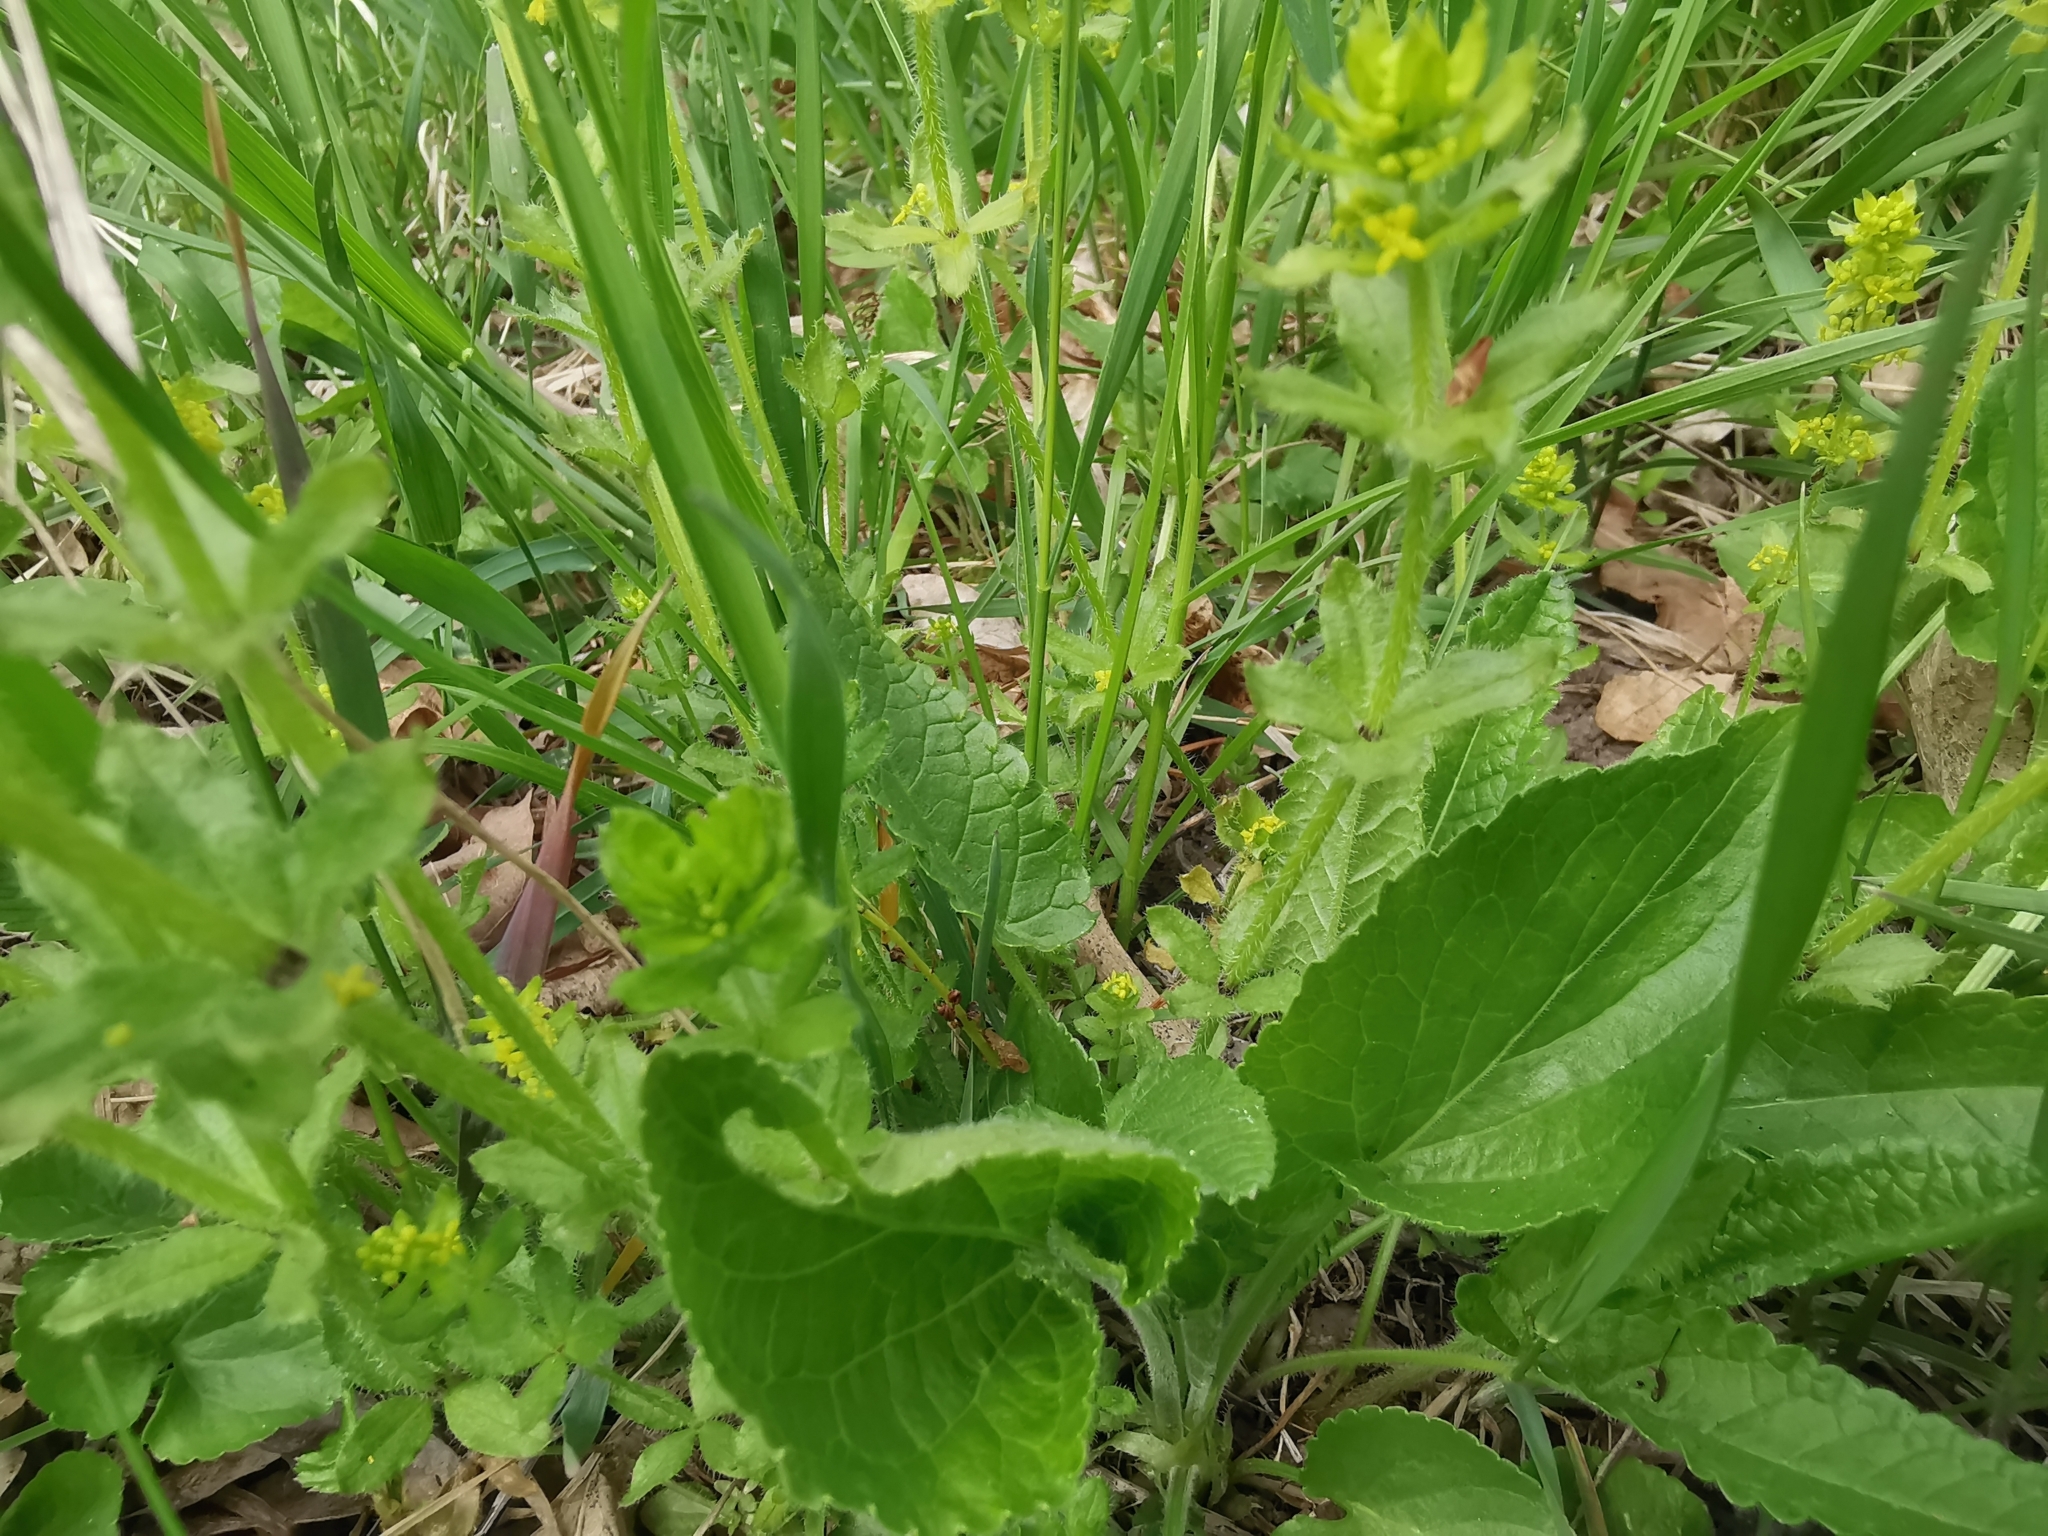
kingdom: Plantae
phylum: Tracheophyta
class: Magnoliopsida
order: Gentianales
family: Rubiaceae
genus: Cruciata
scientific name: Cruciata laevipes
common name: Crosswort
